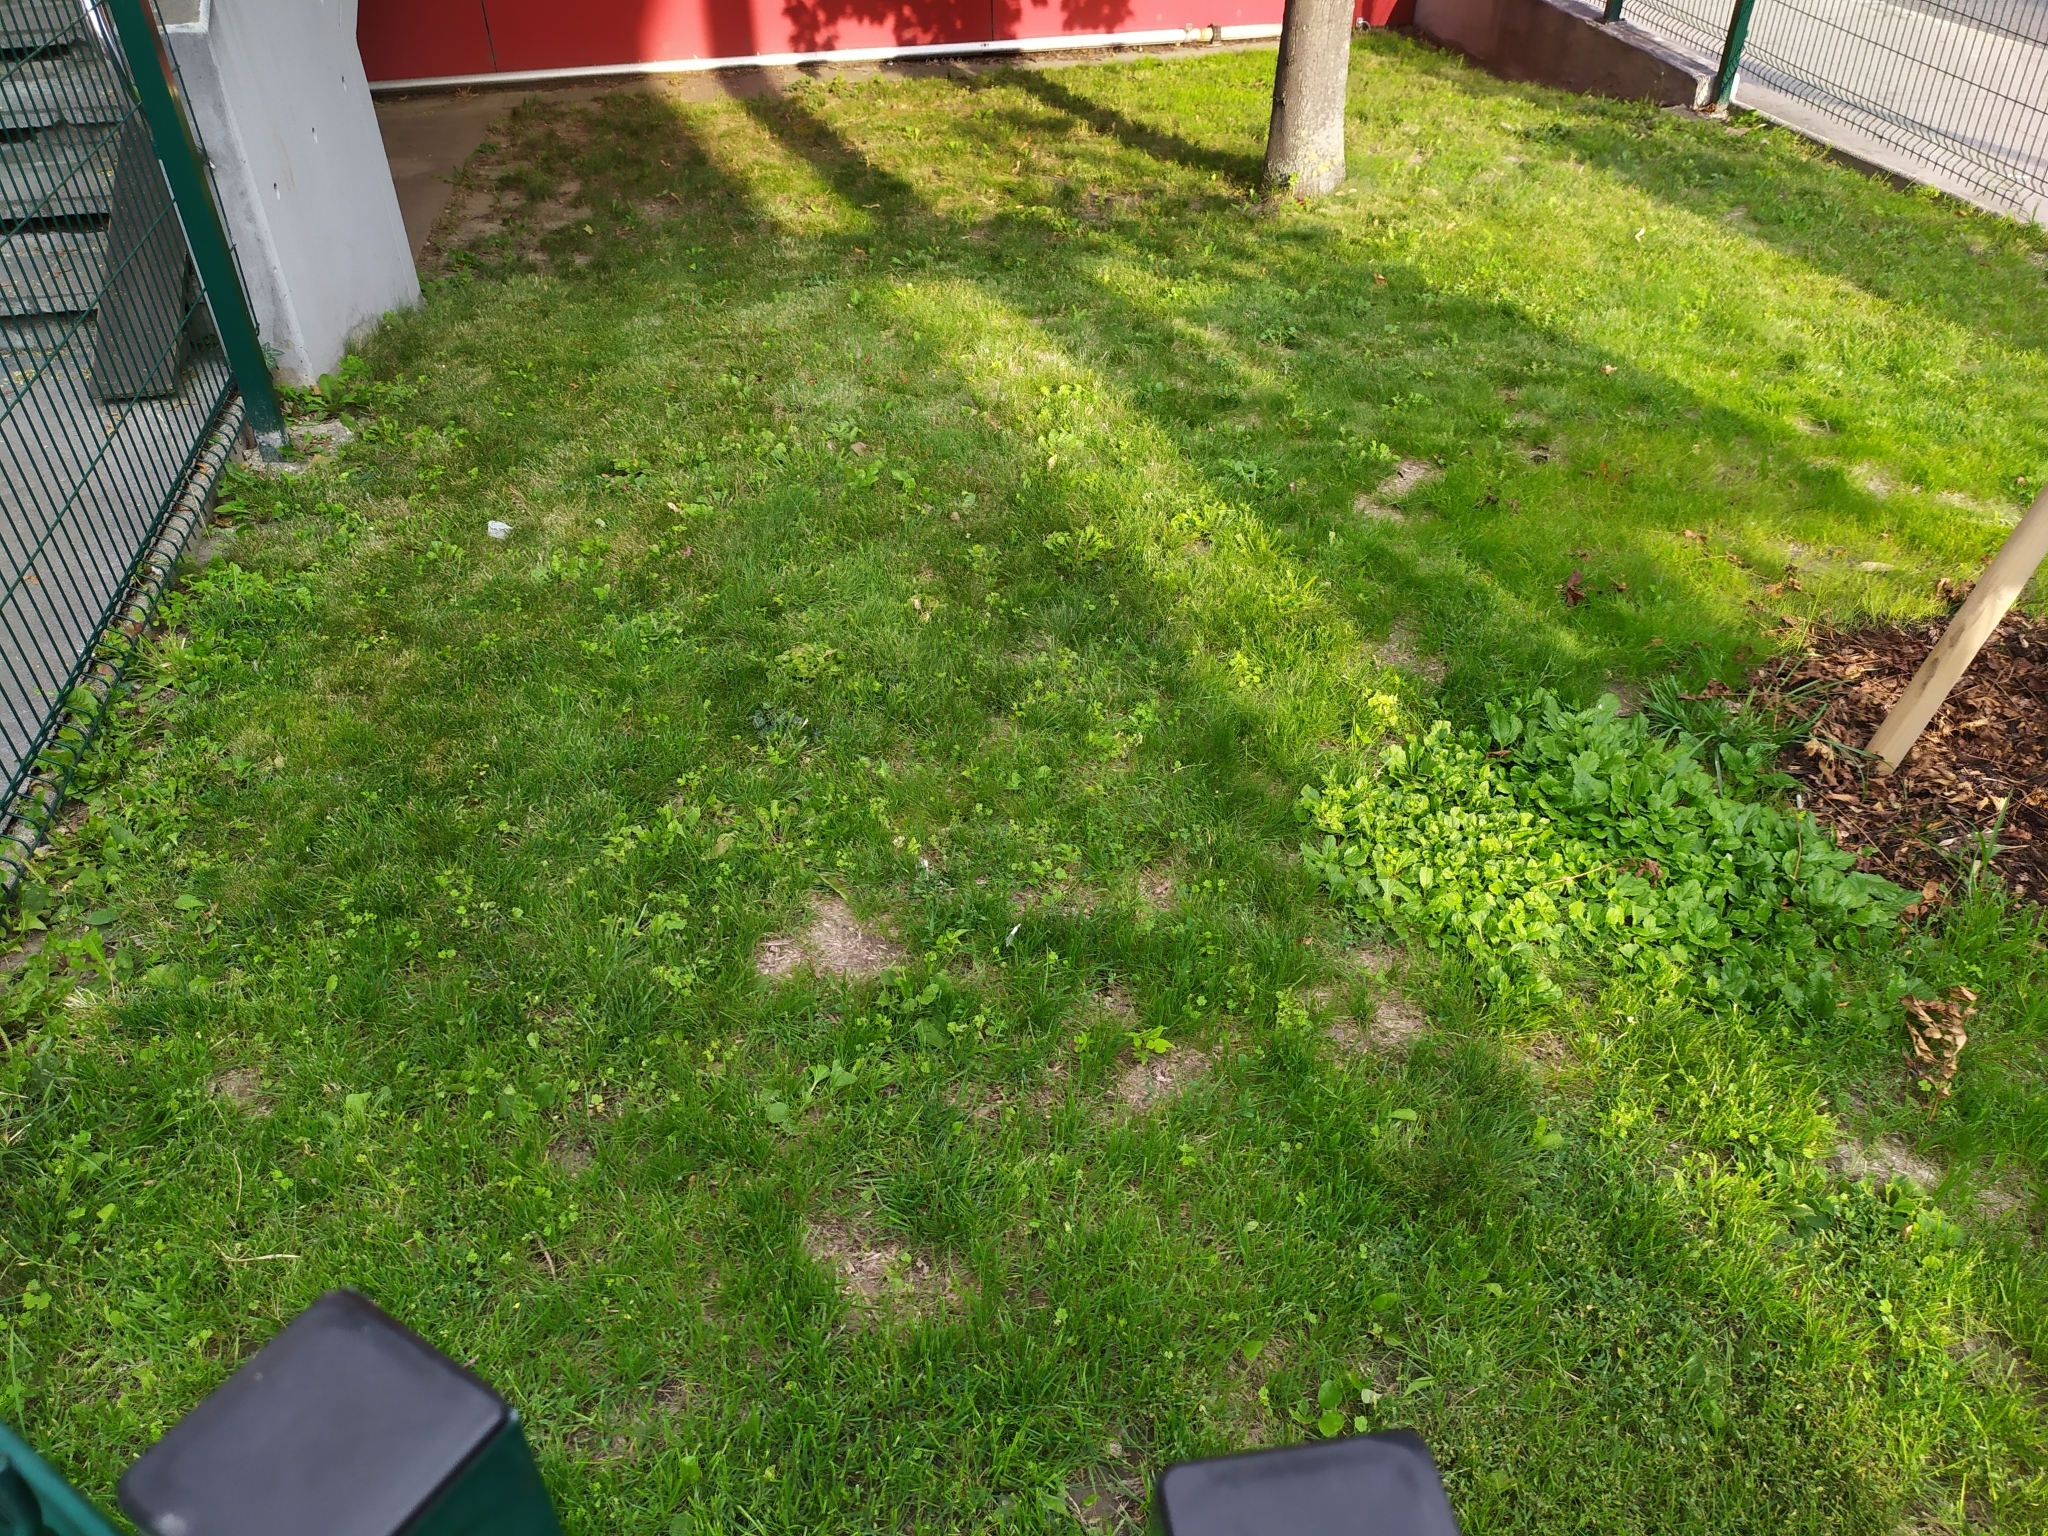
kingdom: Plantae
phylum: Tracheophyta
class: Magnoliopsida
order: Boraginales
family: Boraginaceae
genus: Echium
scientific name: Echium plantagineum
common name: Purple viper's-bugloss
